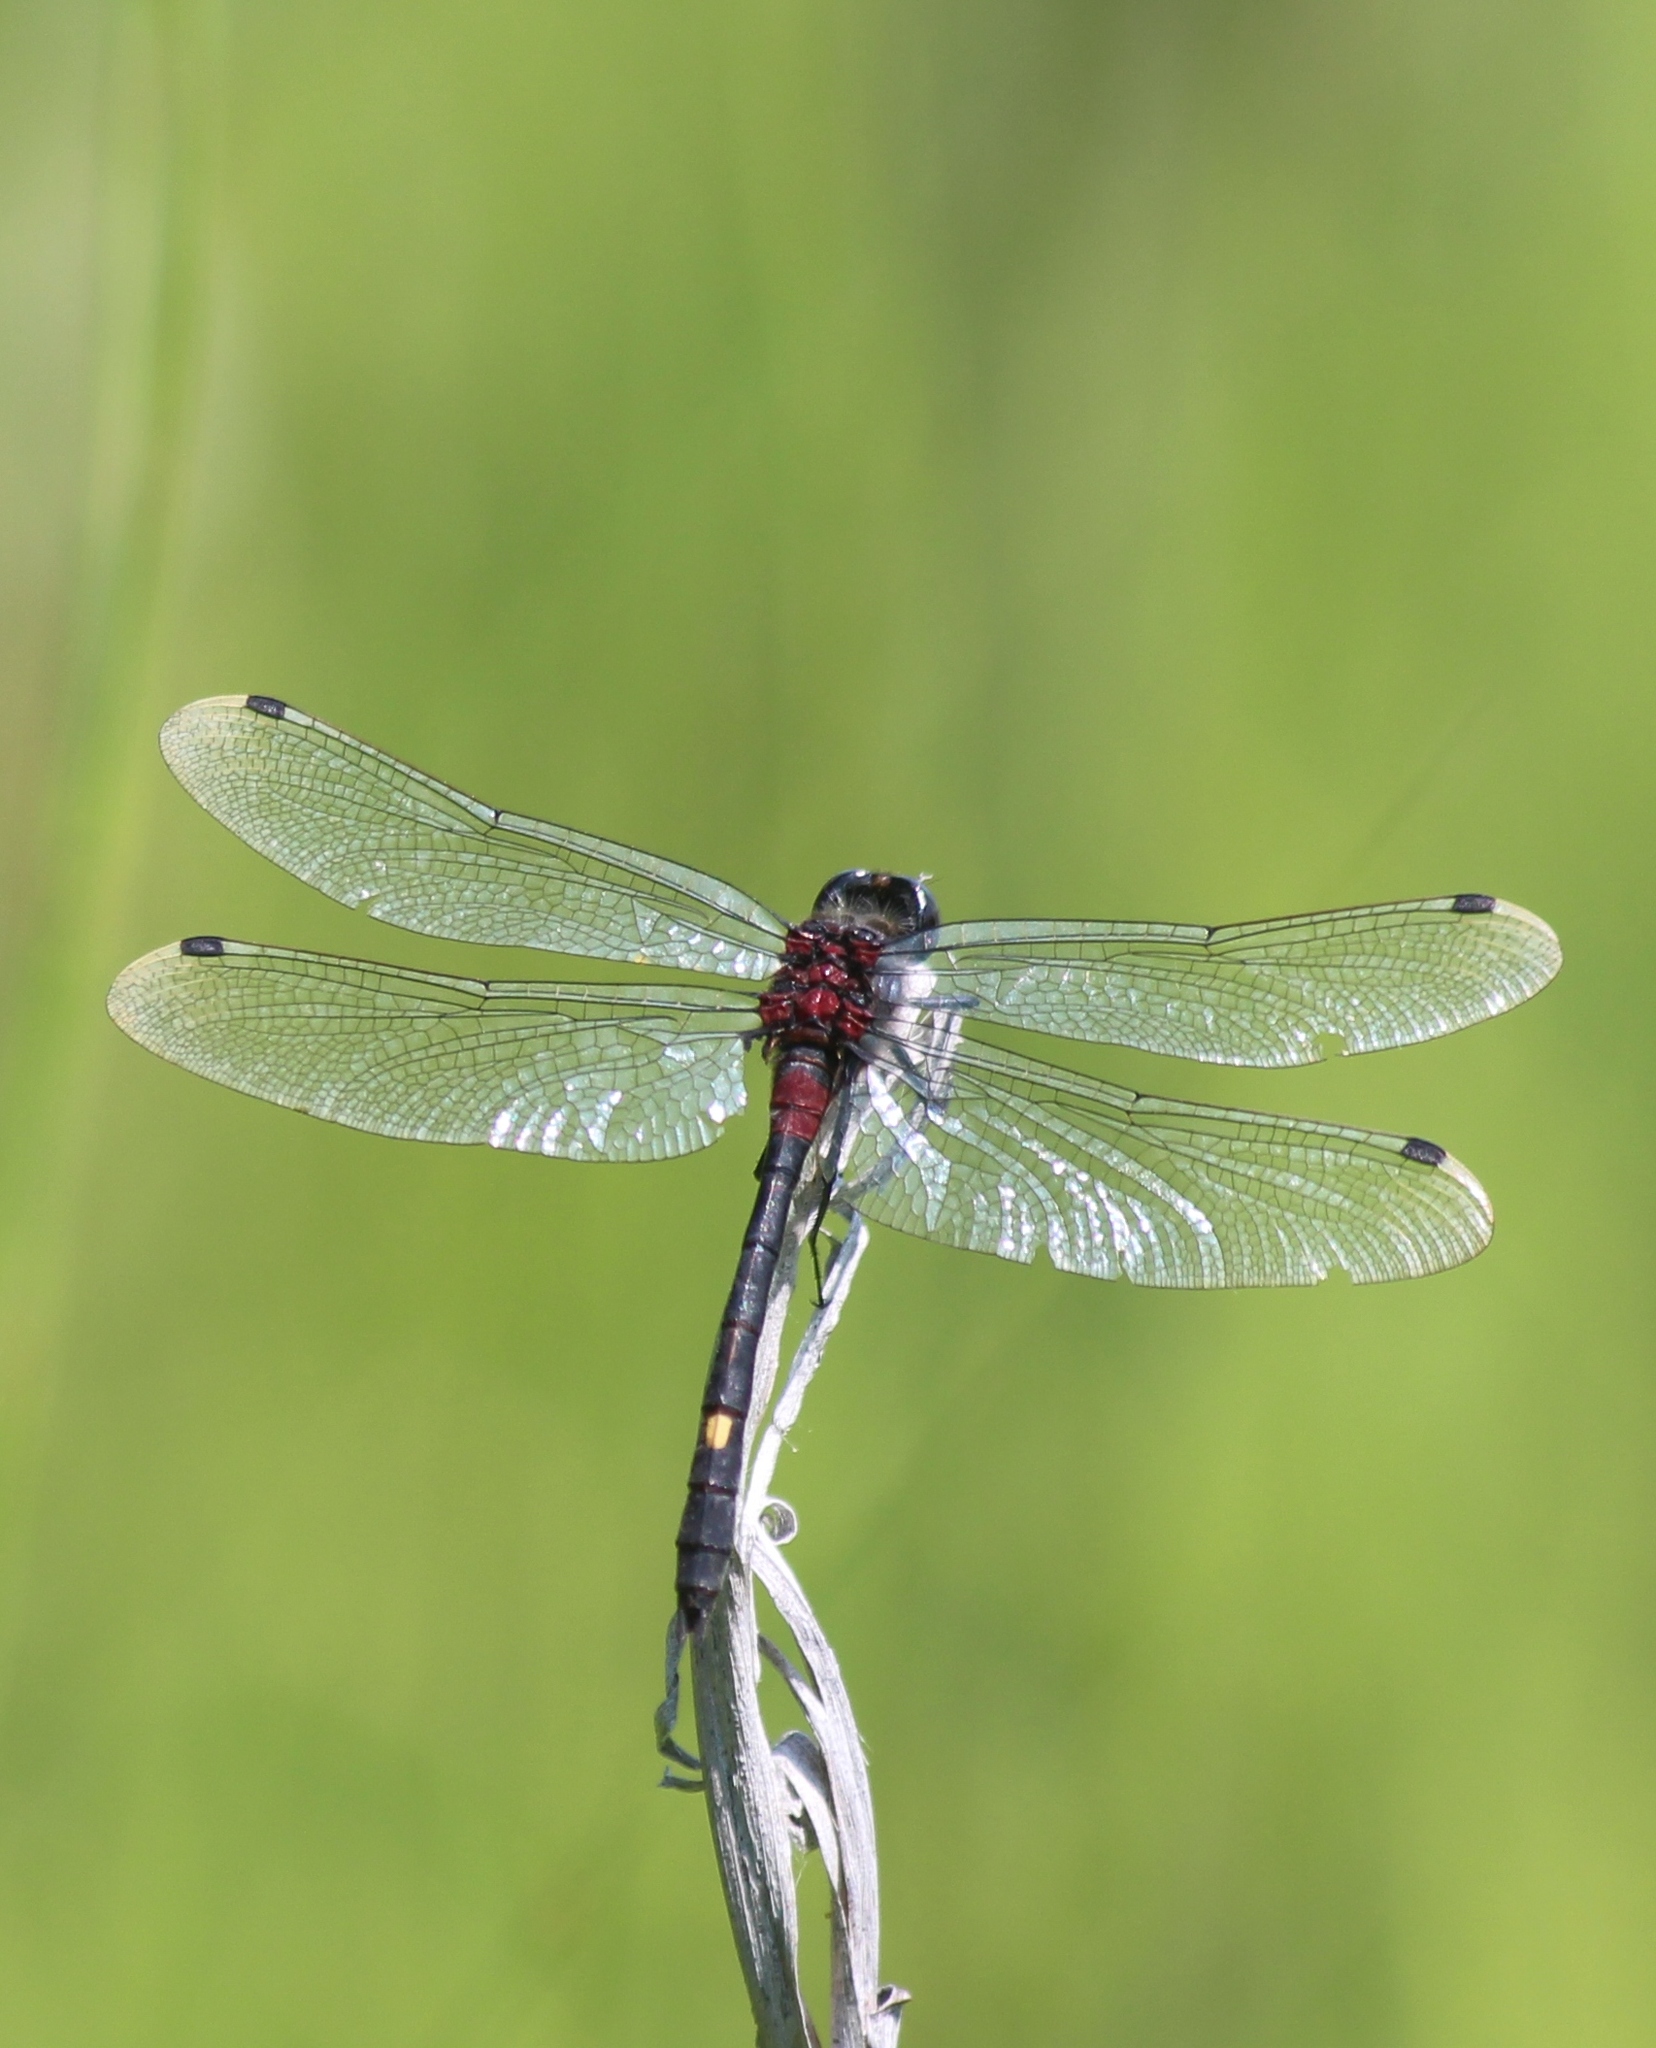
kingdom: Animalia
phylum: Arthropoda
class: Insecta
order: Odonata
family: Libellulidae
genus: Leucorrhinia
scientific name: Leucorrhinia orientalis
